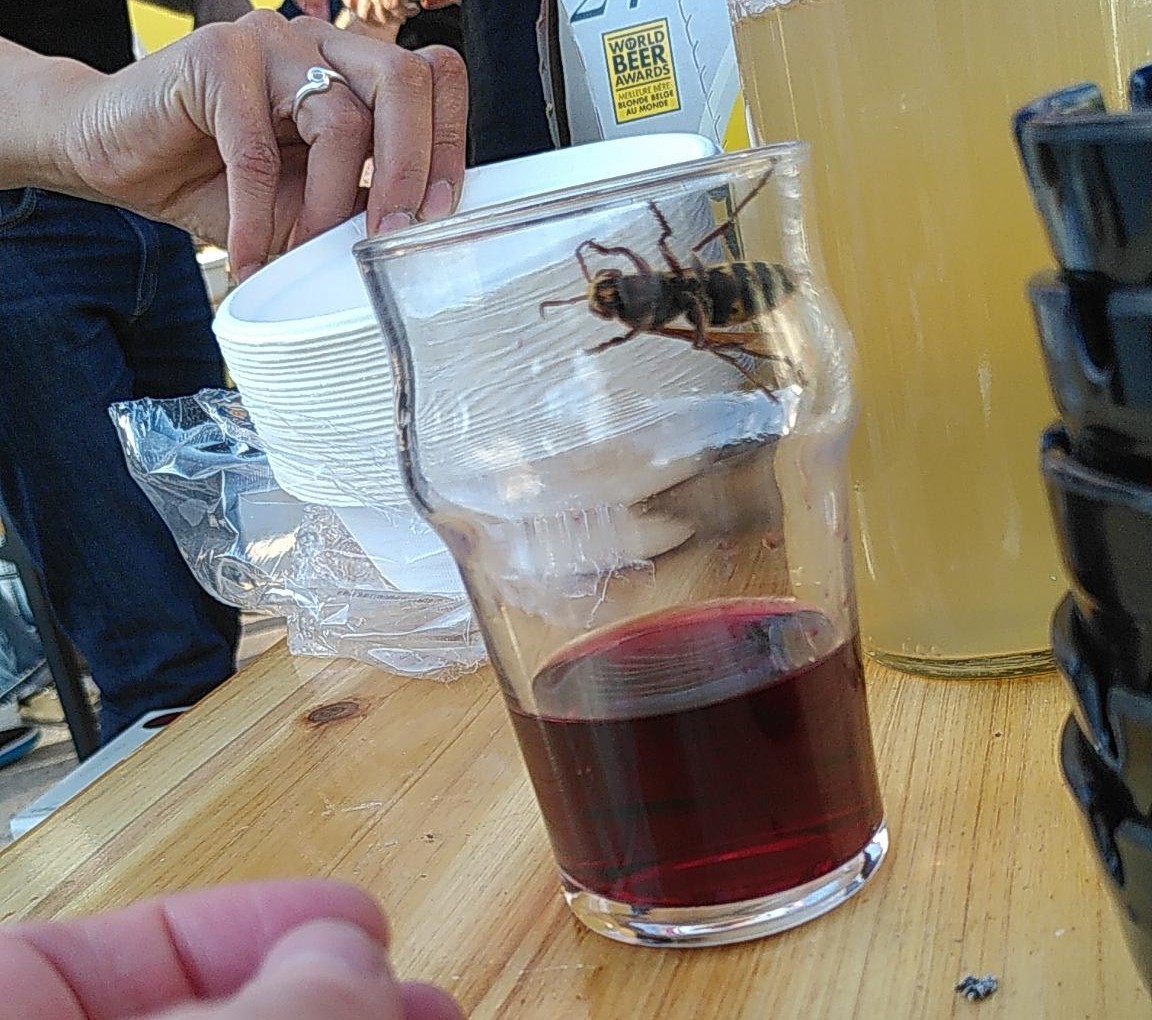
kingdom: Animalia
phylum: Arthropoda
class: Insecta
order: Hymenoptera
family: Vespidae
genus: Vespa
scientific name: Vespa crabro
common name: Hornet
